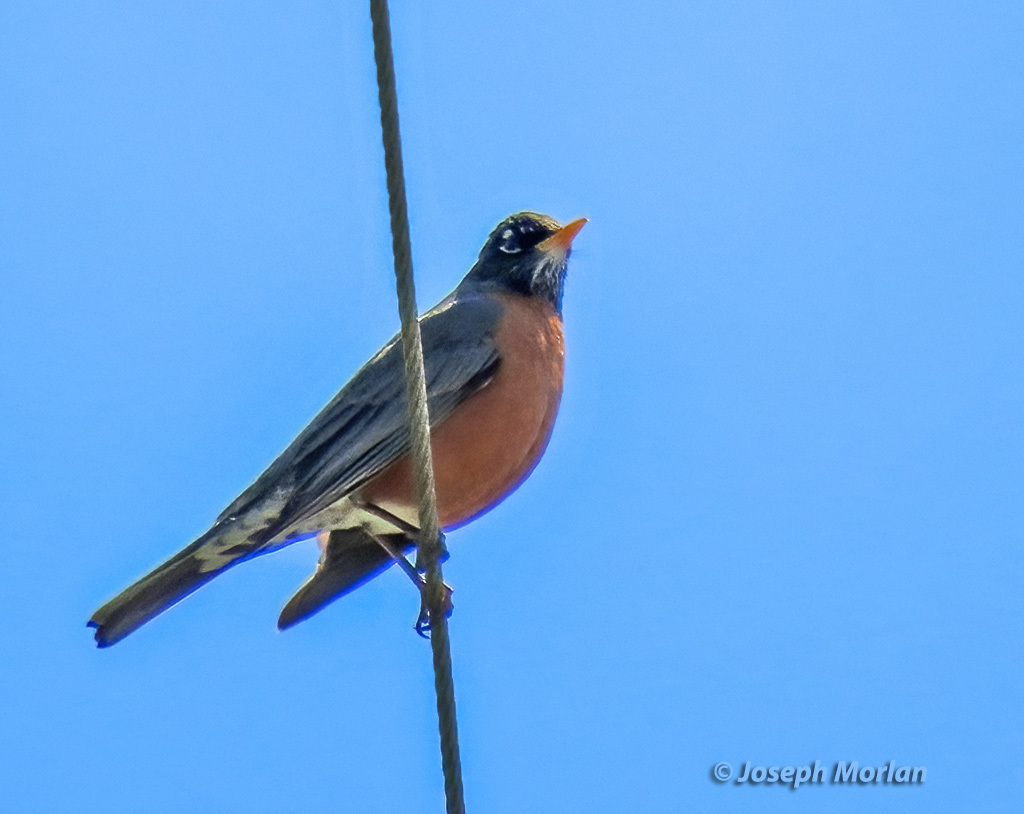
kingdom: Animalia
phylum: Chordata
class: Aves
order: Passeriformes
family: Turdidae
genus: Turdus
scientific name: Turdus migratorius
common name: American robin
